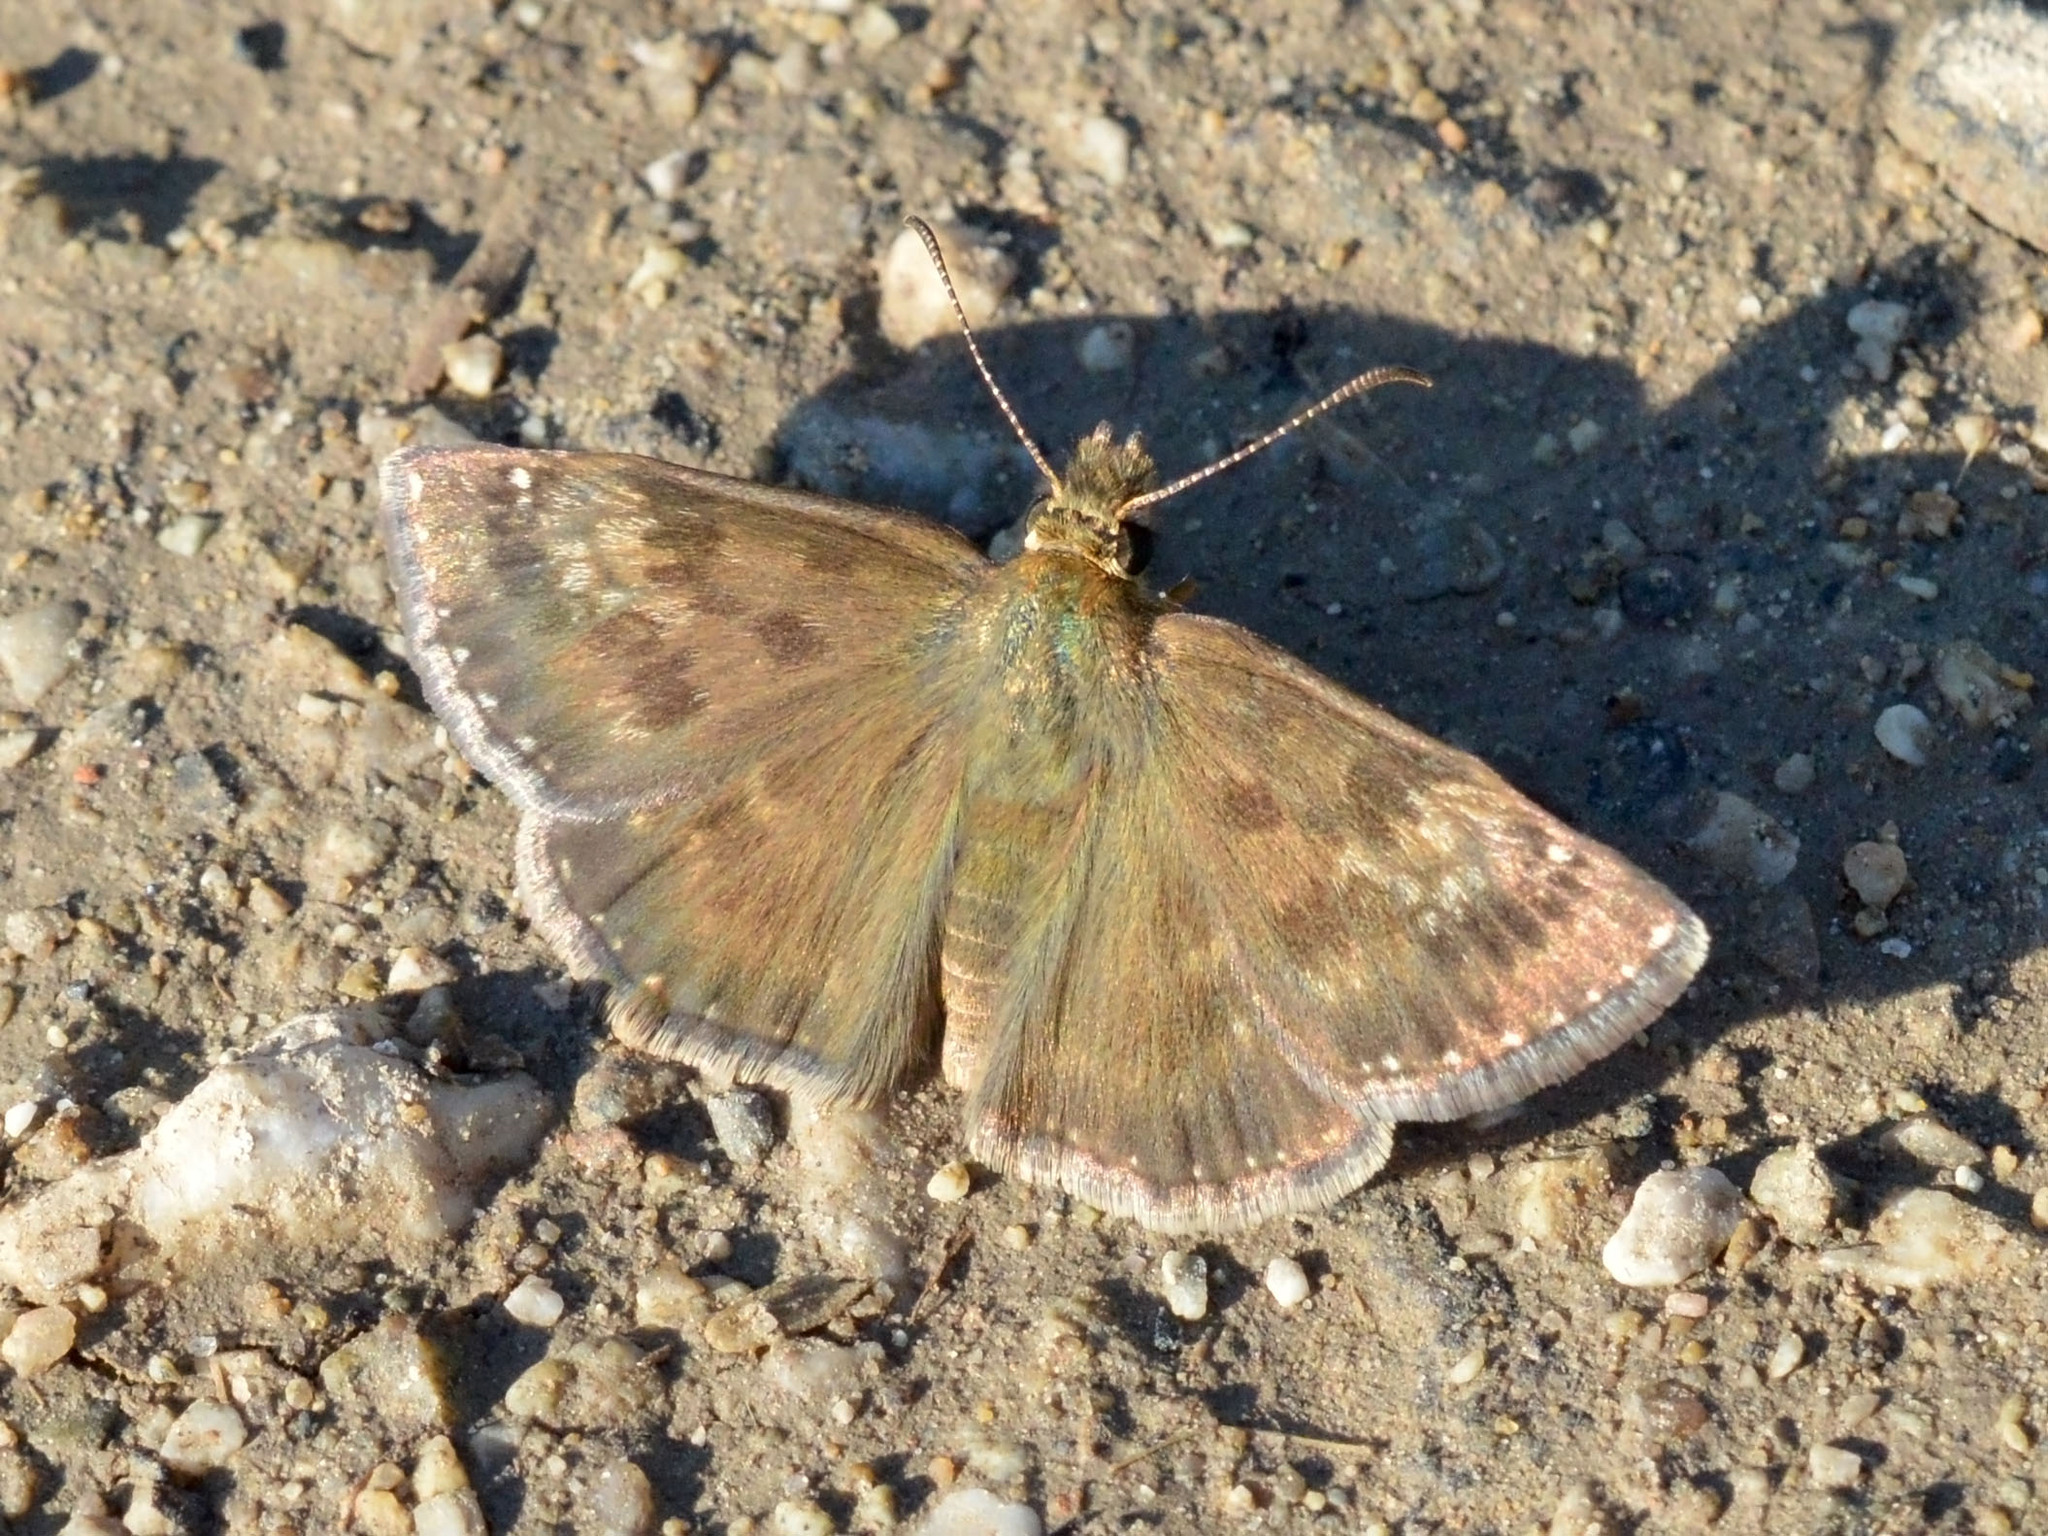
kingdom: Animalia
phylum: Arthropoda
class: Insecta
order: Lepidoptera
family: Hesperiidae
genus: Erynnis
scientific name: Erynnis tages
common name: Dingy skipper
